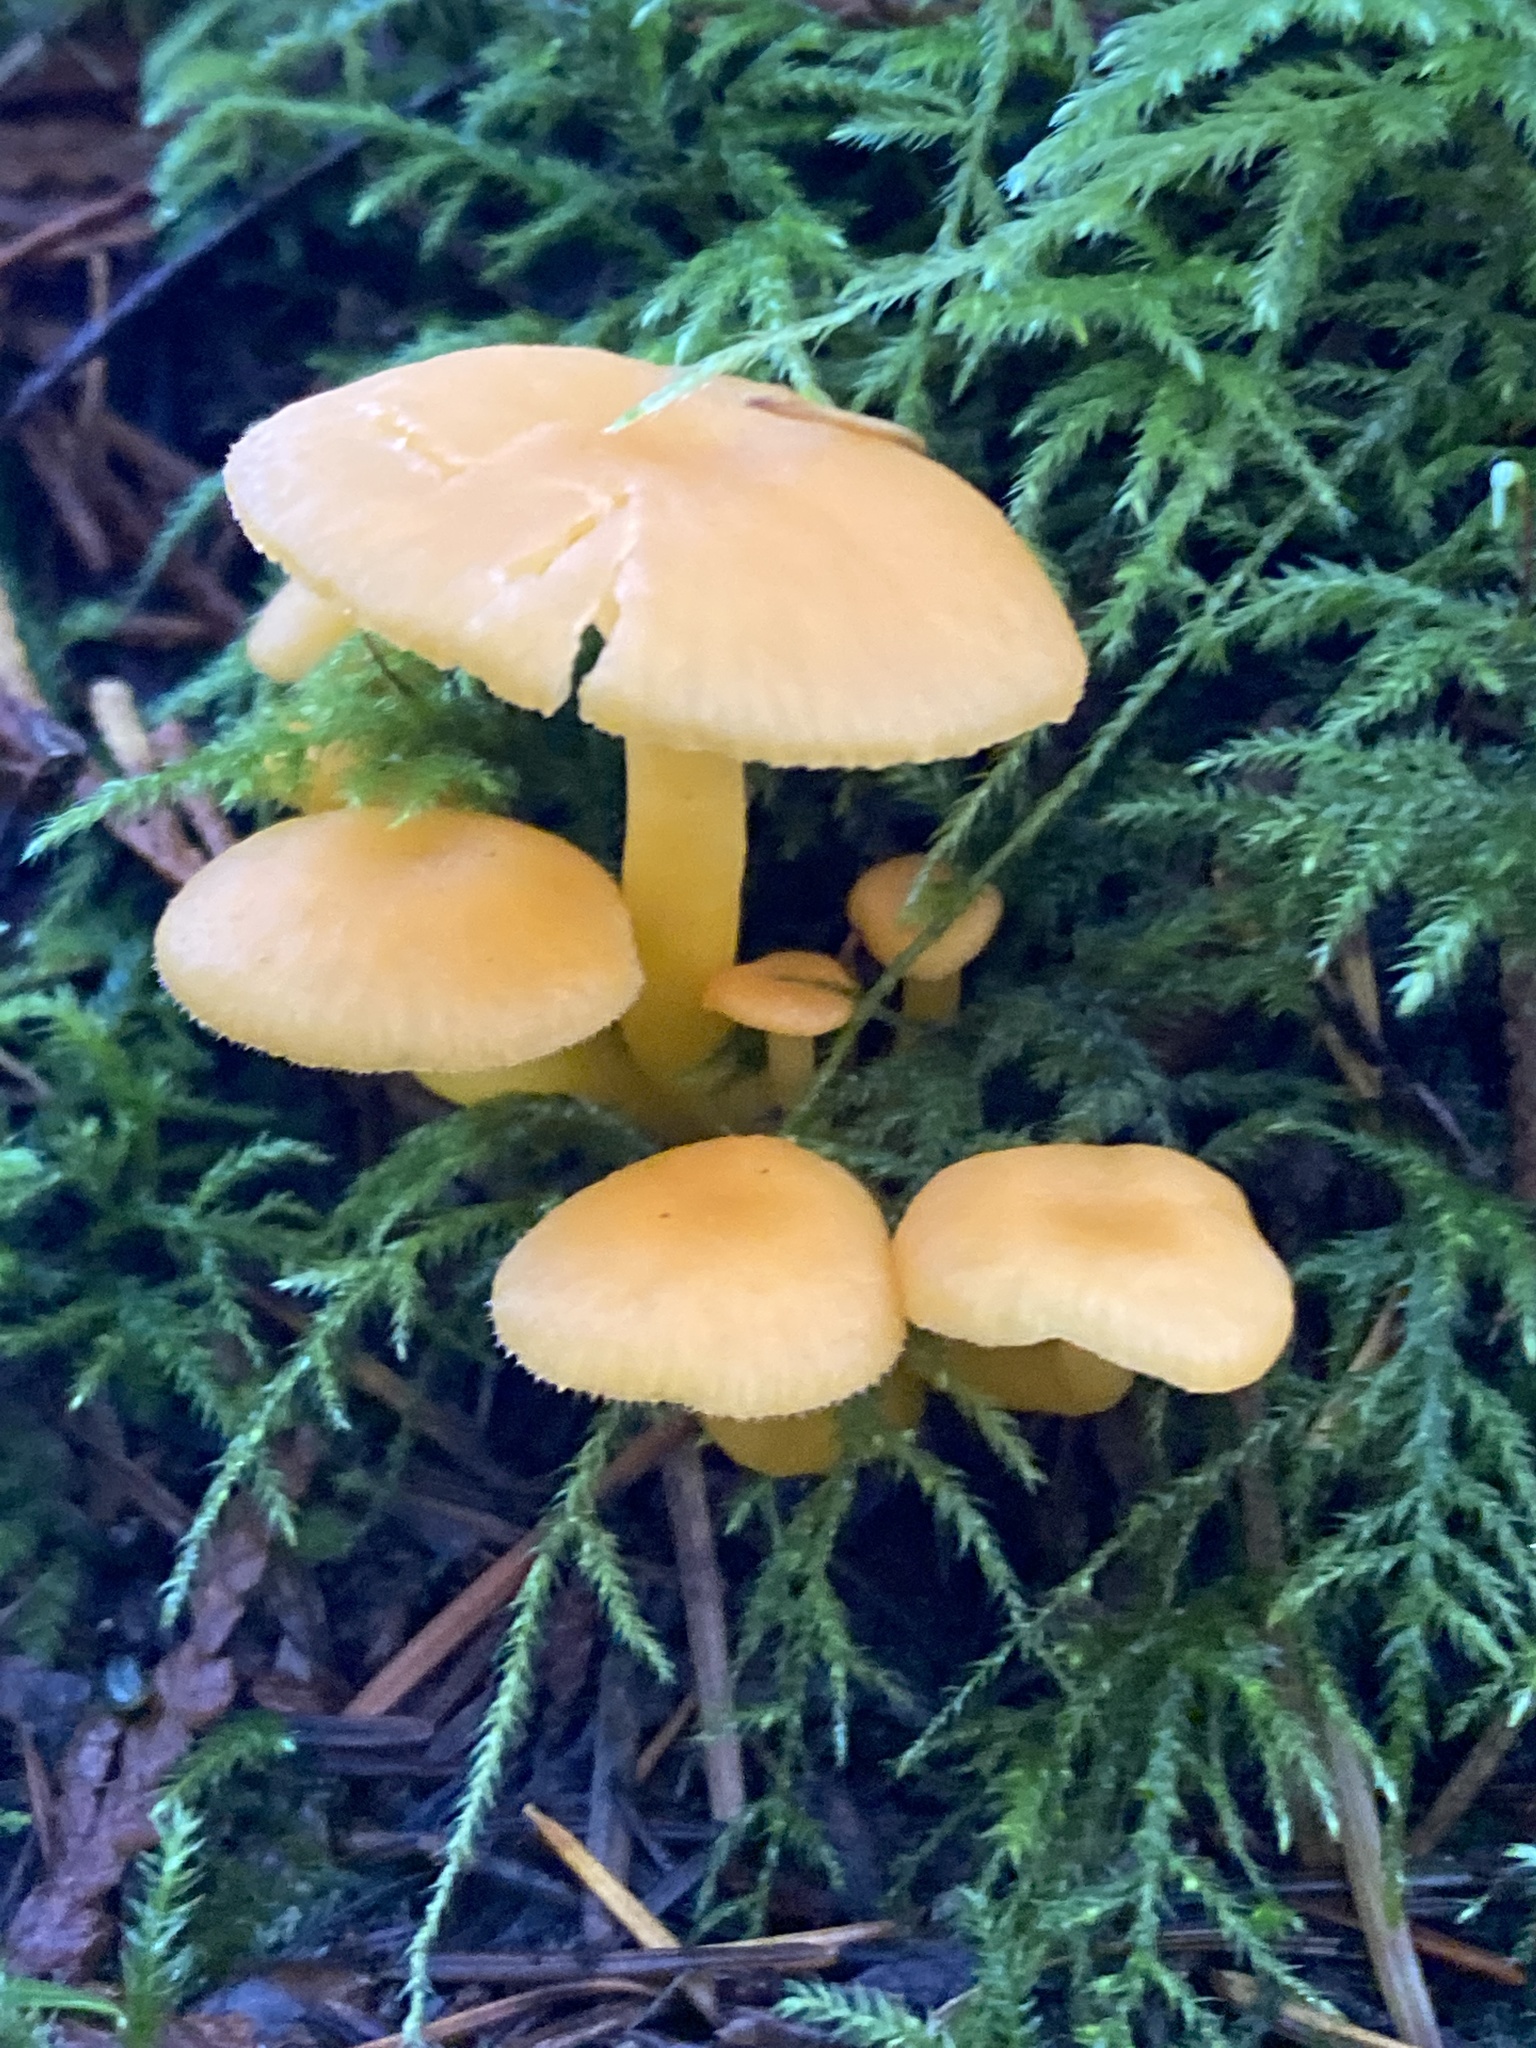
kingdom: Fungi
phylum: Basidiomycota
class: Agaricomycetes
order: Agaricales
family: Hygrophoraceae
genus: Chrysomphalina
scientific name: Chrysomphalina aurantiaca
